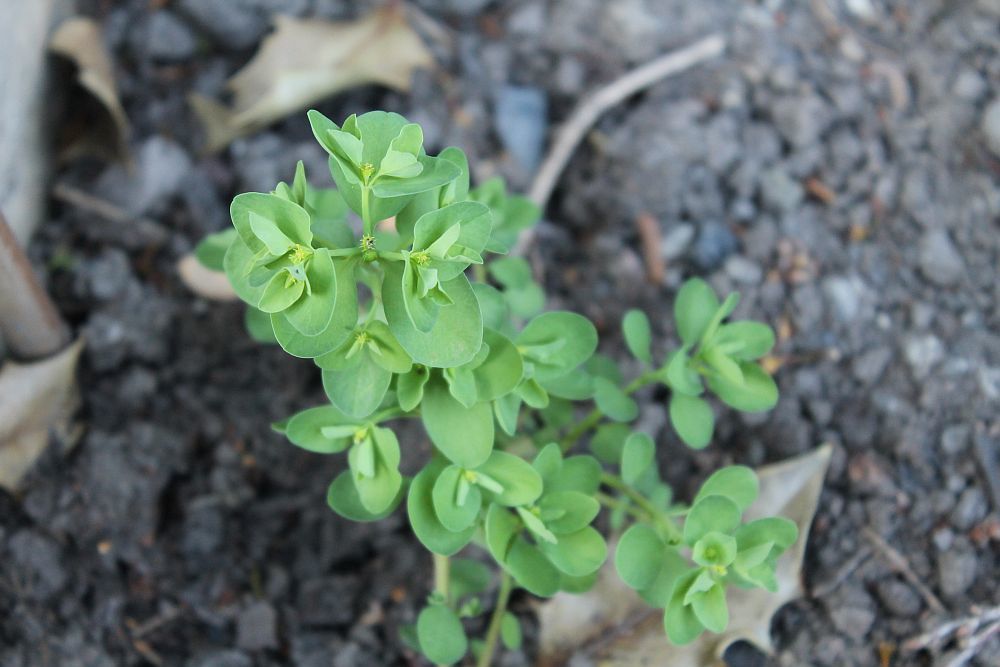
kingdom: Plantae
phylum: Tracheophyta
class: Magnoliopsida
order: Malpighiales
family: Euphorbiaceae
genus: Euphorbia
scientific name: Euphorbia peplus
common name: Petty spurge
